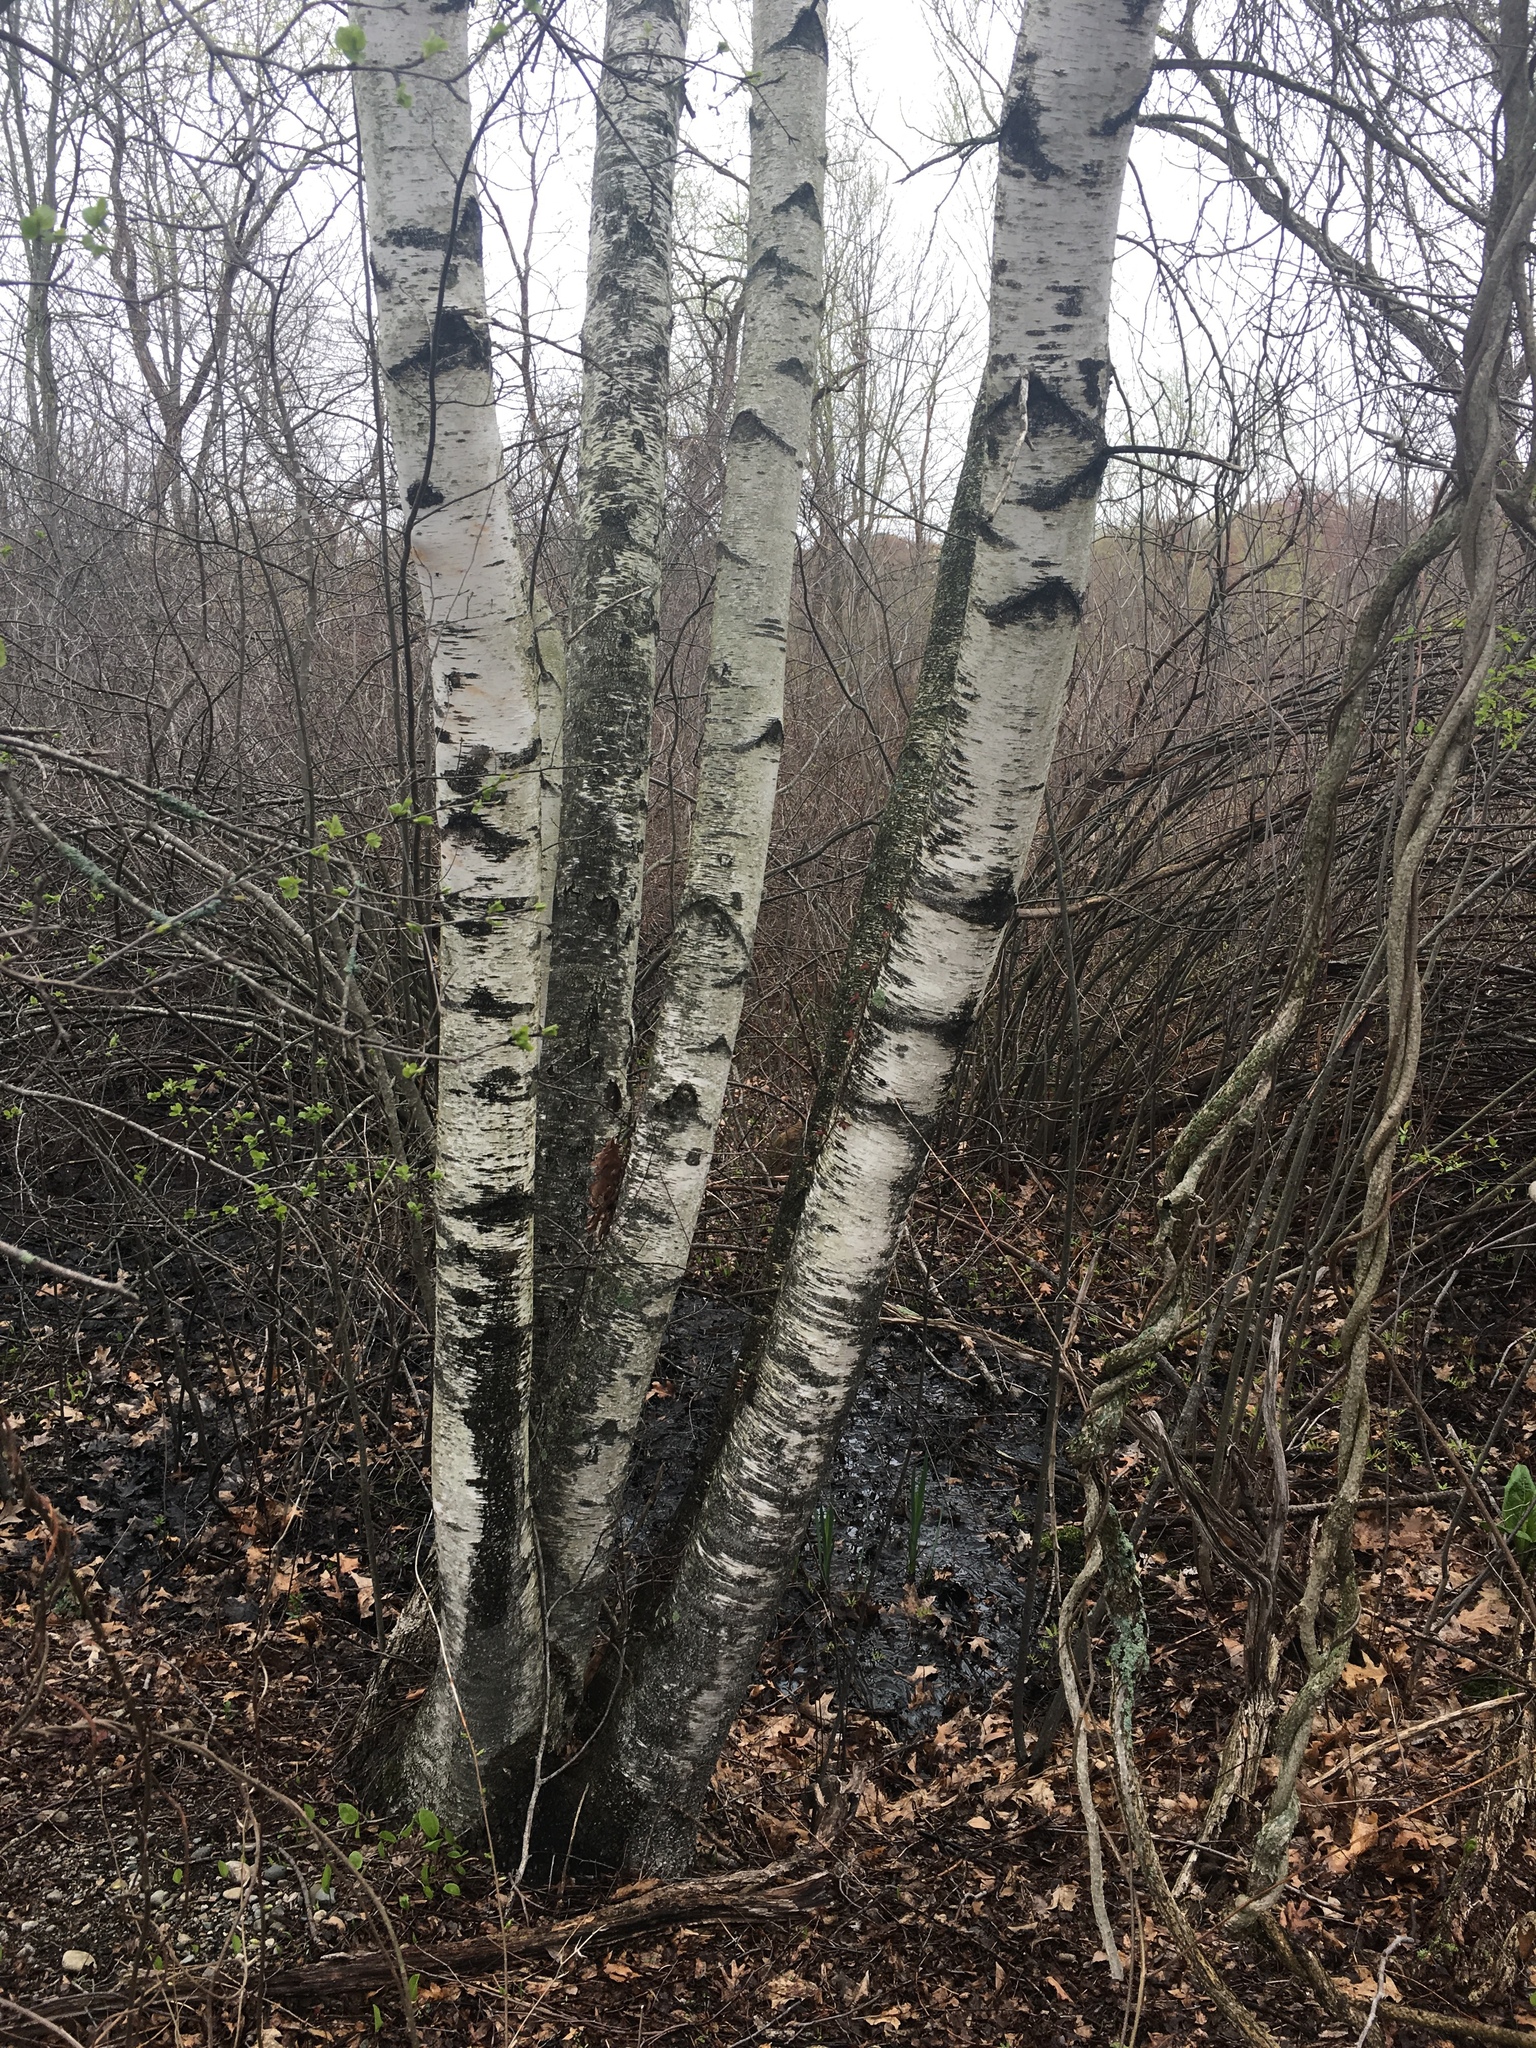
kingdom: Plantae
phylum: Tracheophyta
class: Magnoliopsida
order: Fagales
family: Betulaceae
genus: Betula
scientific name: Betula papyrifera
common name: Paper birch
